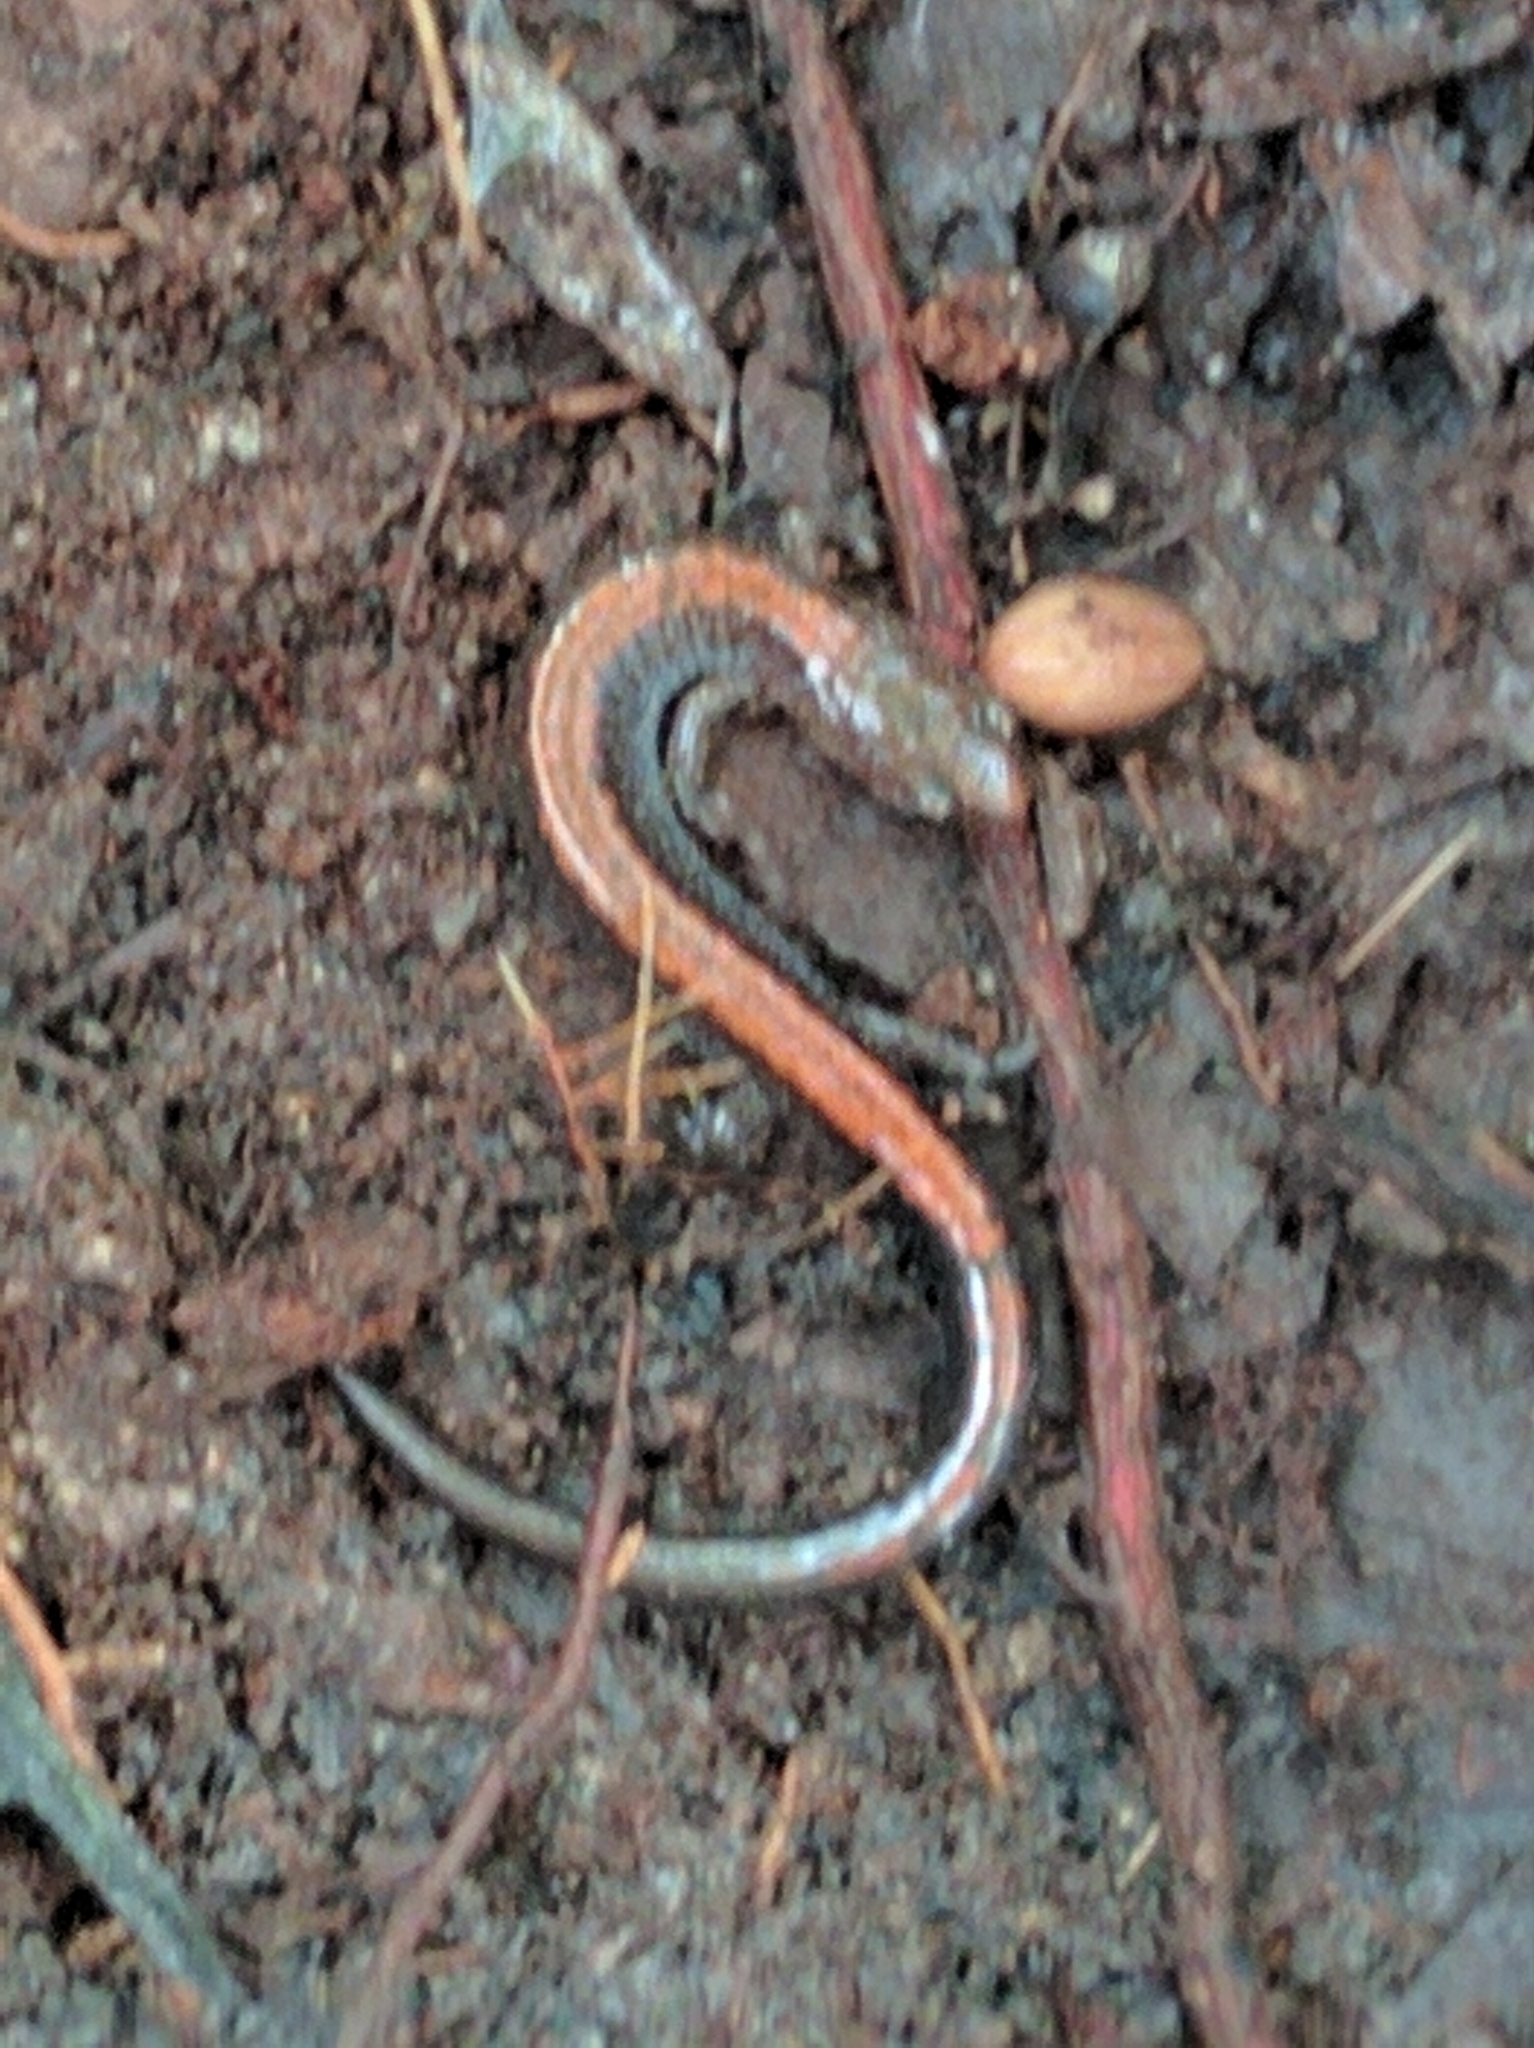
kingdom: Animalia
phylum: Chordata
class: Amphibia
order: Caudata
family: Plethodontidae
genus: Plethodon
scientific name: Plethodon cinereus
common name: Redback salamander
